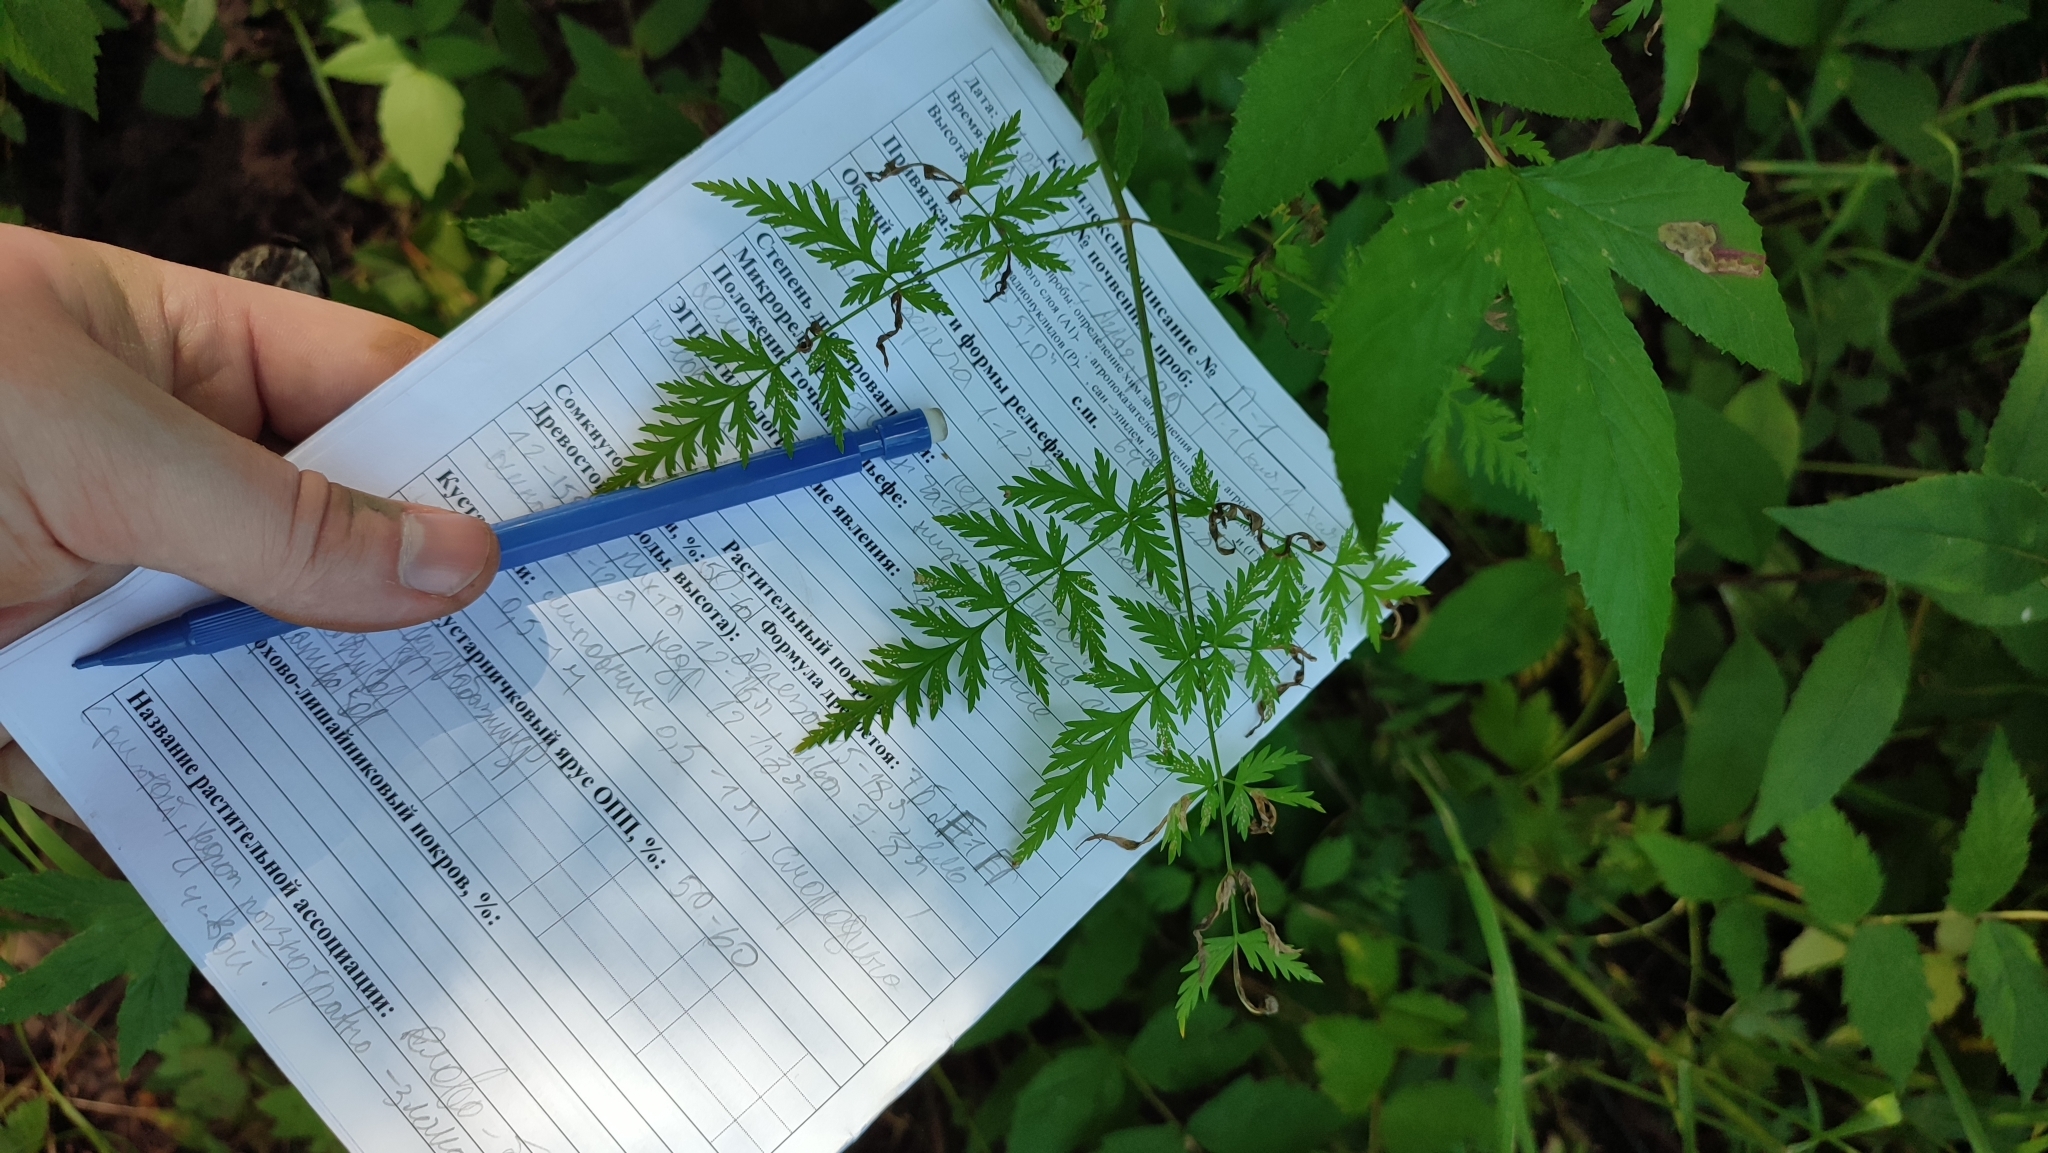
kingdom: Plantae
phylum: Tracheophyta
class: Magnoliopsida
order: Apiales
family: Apiaceae
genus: Anthriscus
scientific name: Anthriscus sylvestris
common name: Cow parsley
